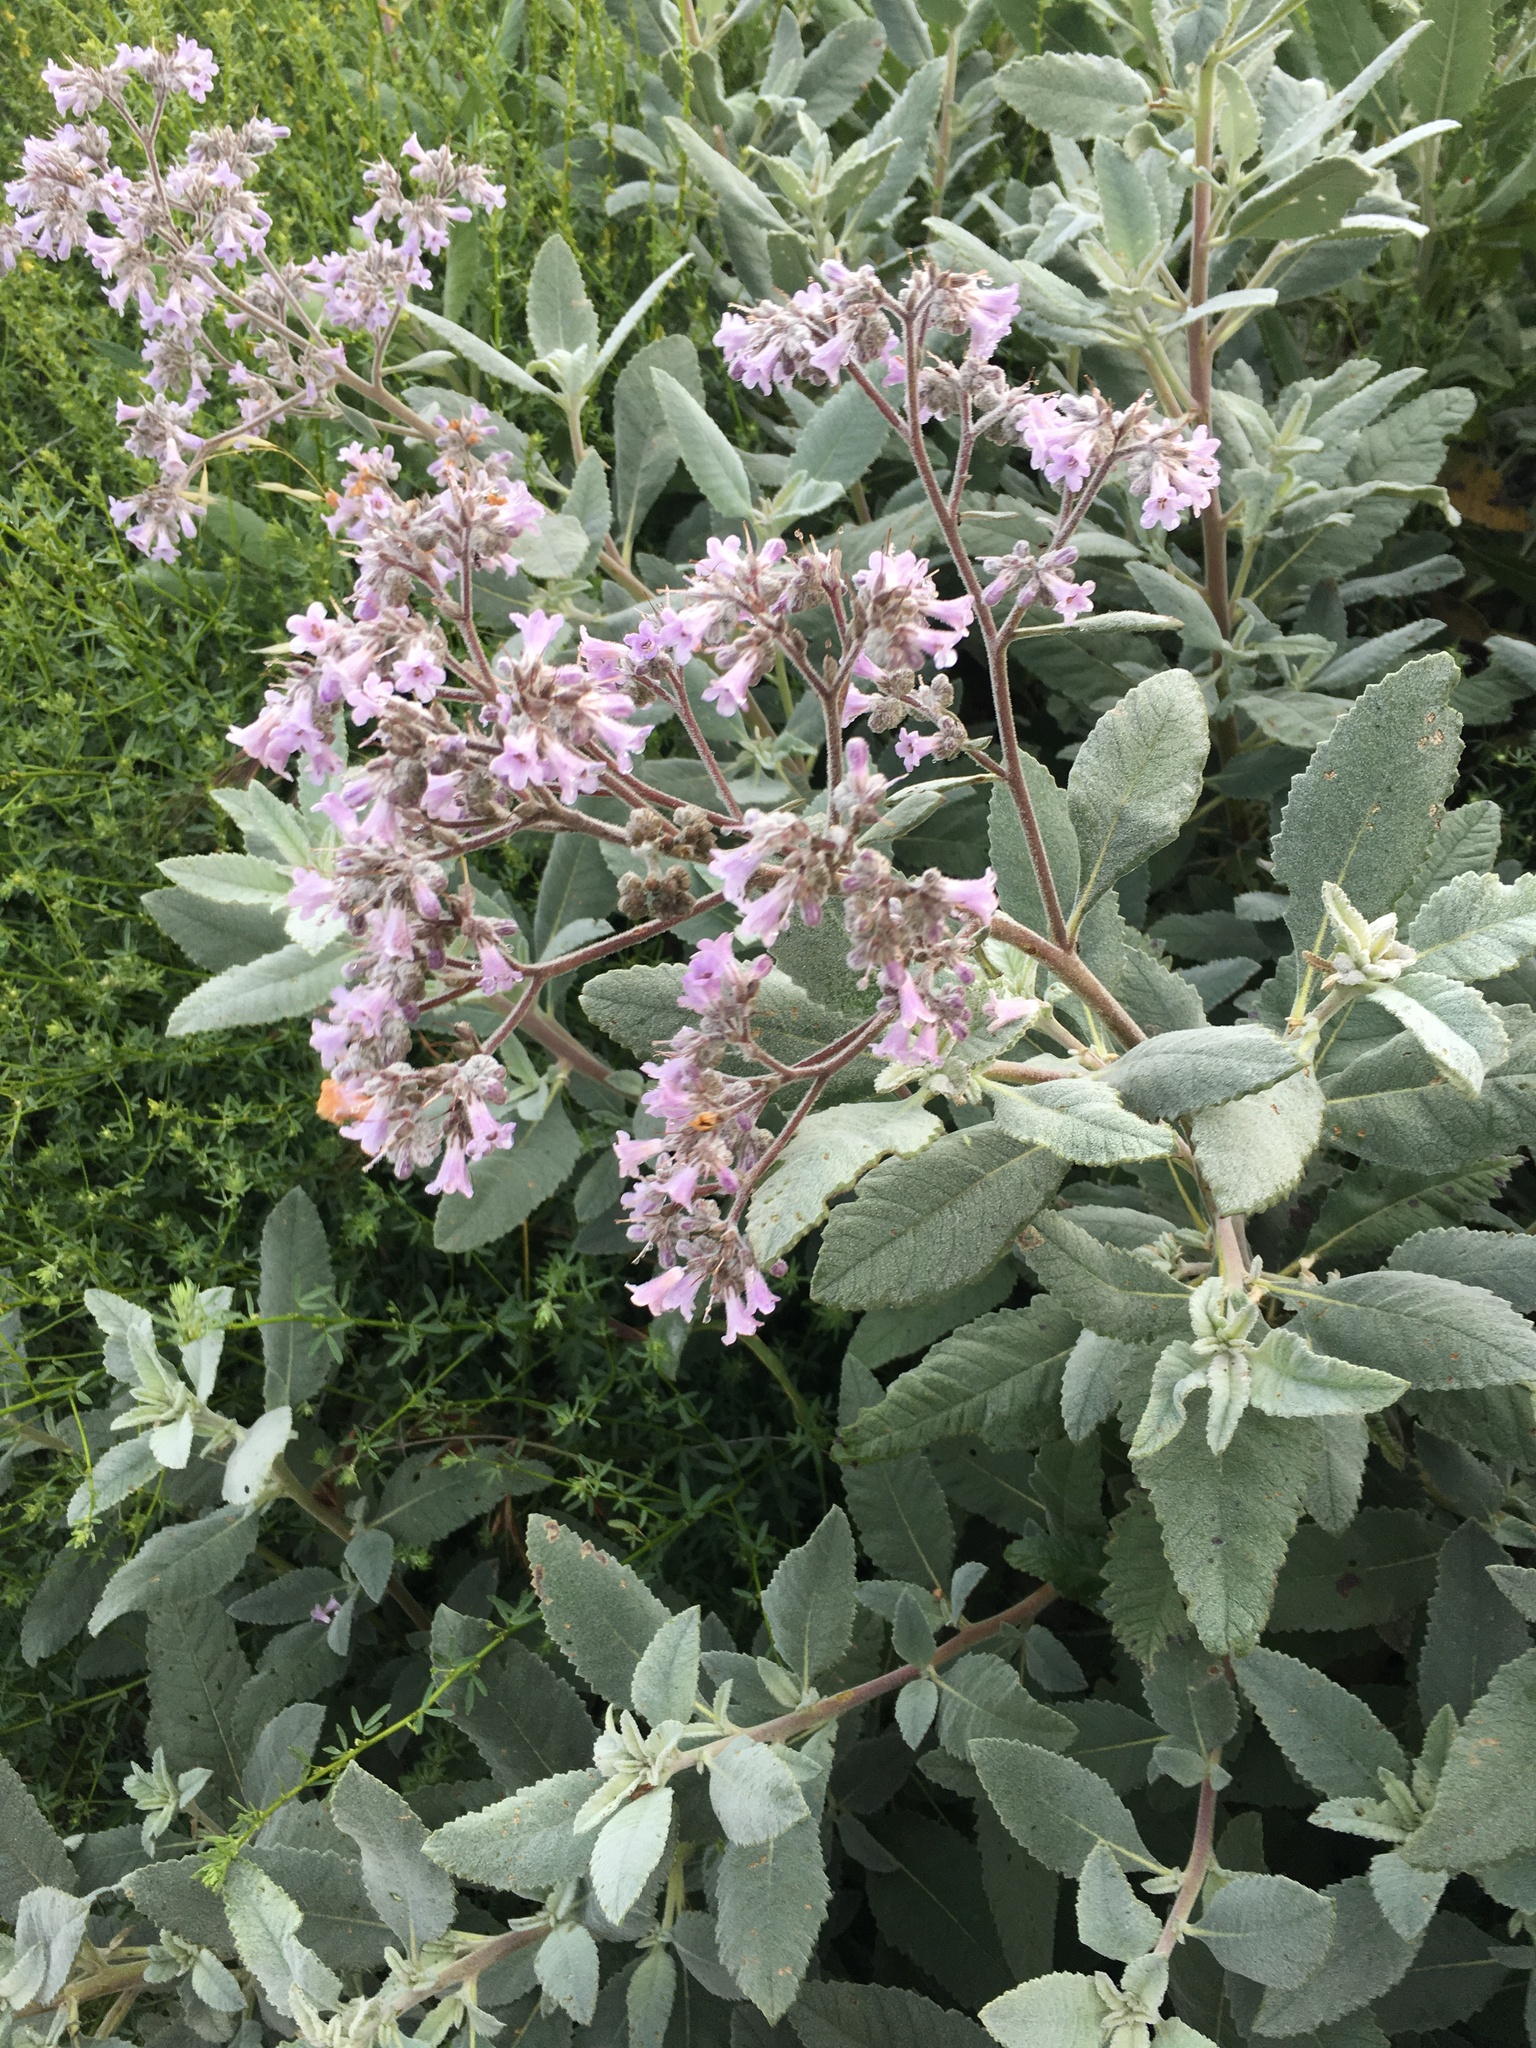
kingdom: Plantae
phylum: Tracheophyta
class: Magnoliopsida
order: Boraginales
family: Namaceae
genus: Eriodictyon
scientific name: Eriodictyon crassifolium
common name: Thick-leaf yerba-santa
